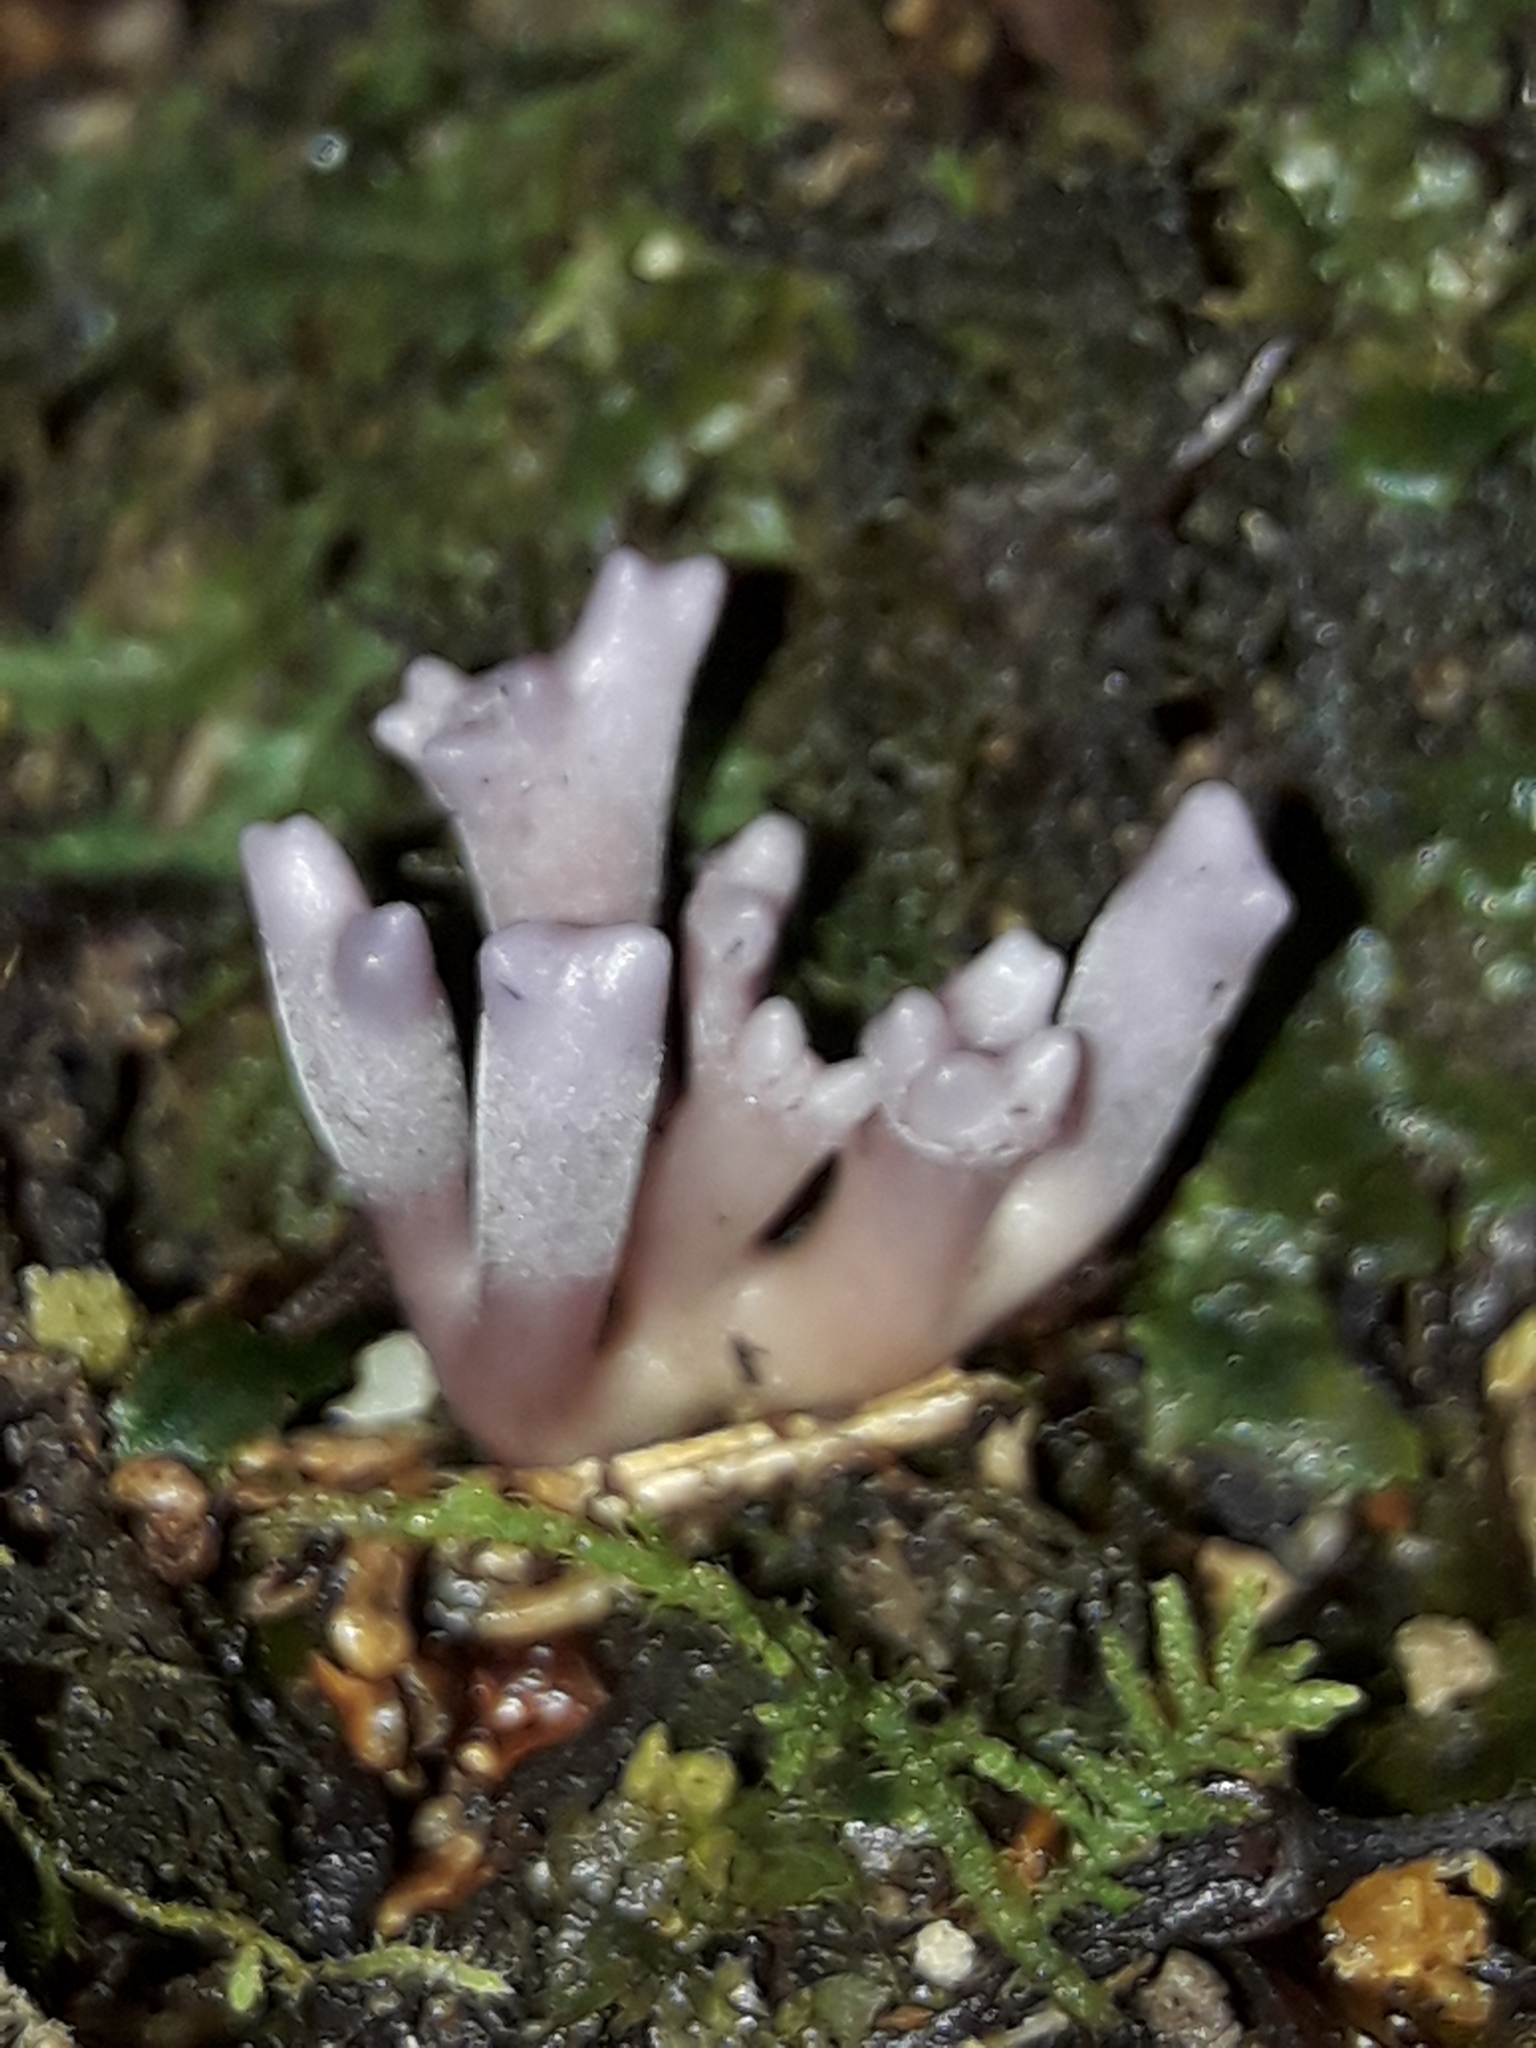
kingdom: Fungi
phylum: Basidiomycota
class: Agaricomycetes
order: Agaricales
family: Clavariaceae
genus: Ramariopsis
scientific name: Ramariopsis pulchella
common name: Lilac coral
